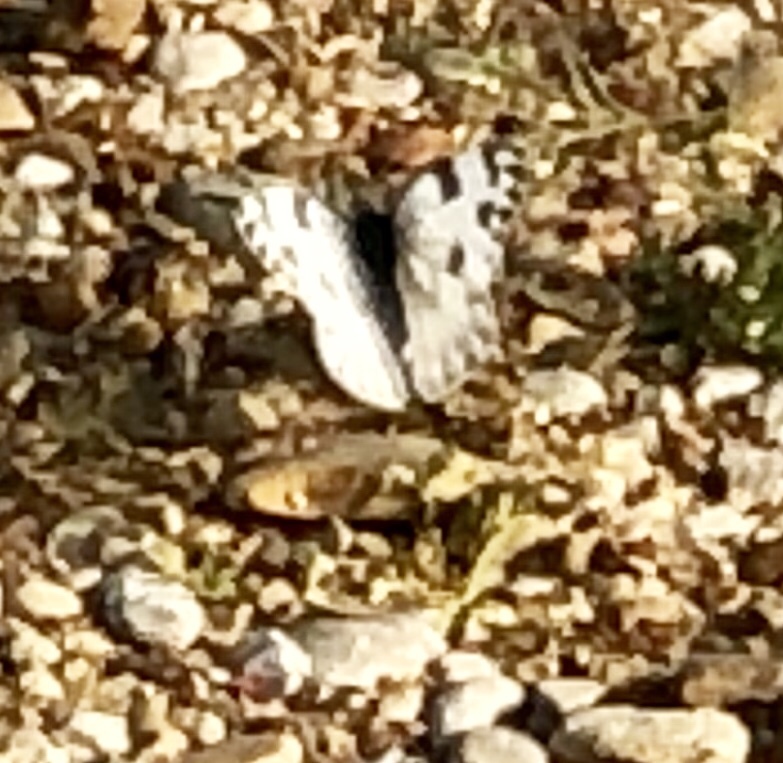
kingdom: Animalia
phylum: Arthropoda
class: Insecta
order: Lepidoptera
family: Pieridae
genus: Pontia
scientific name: Pontia protodice
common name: Checkered white
